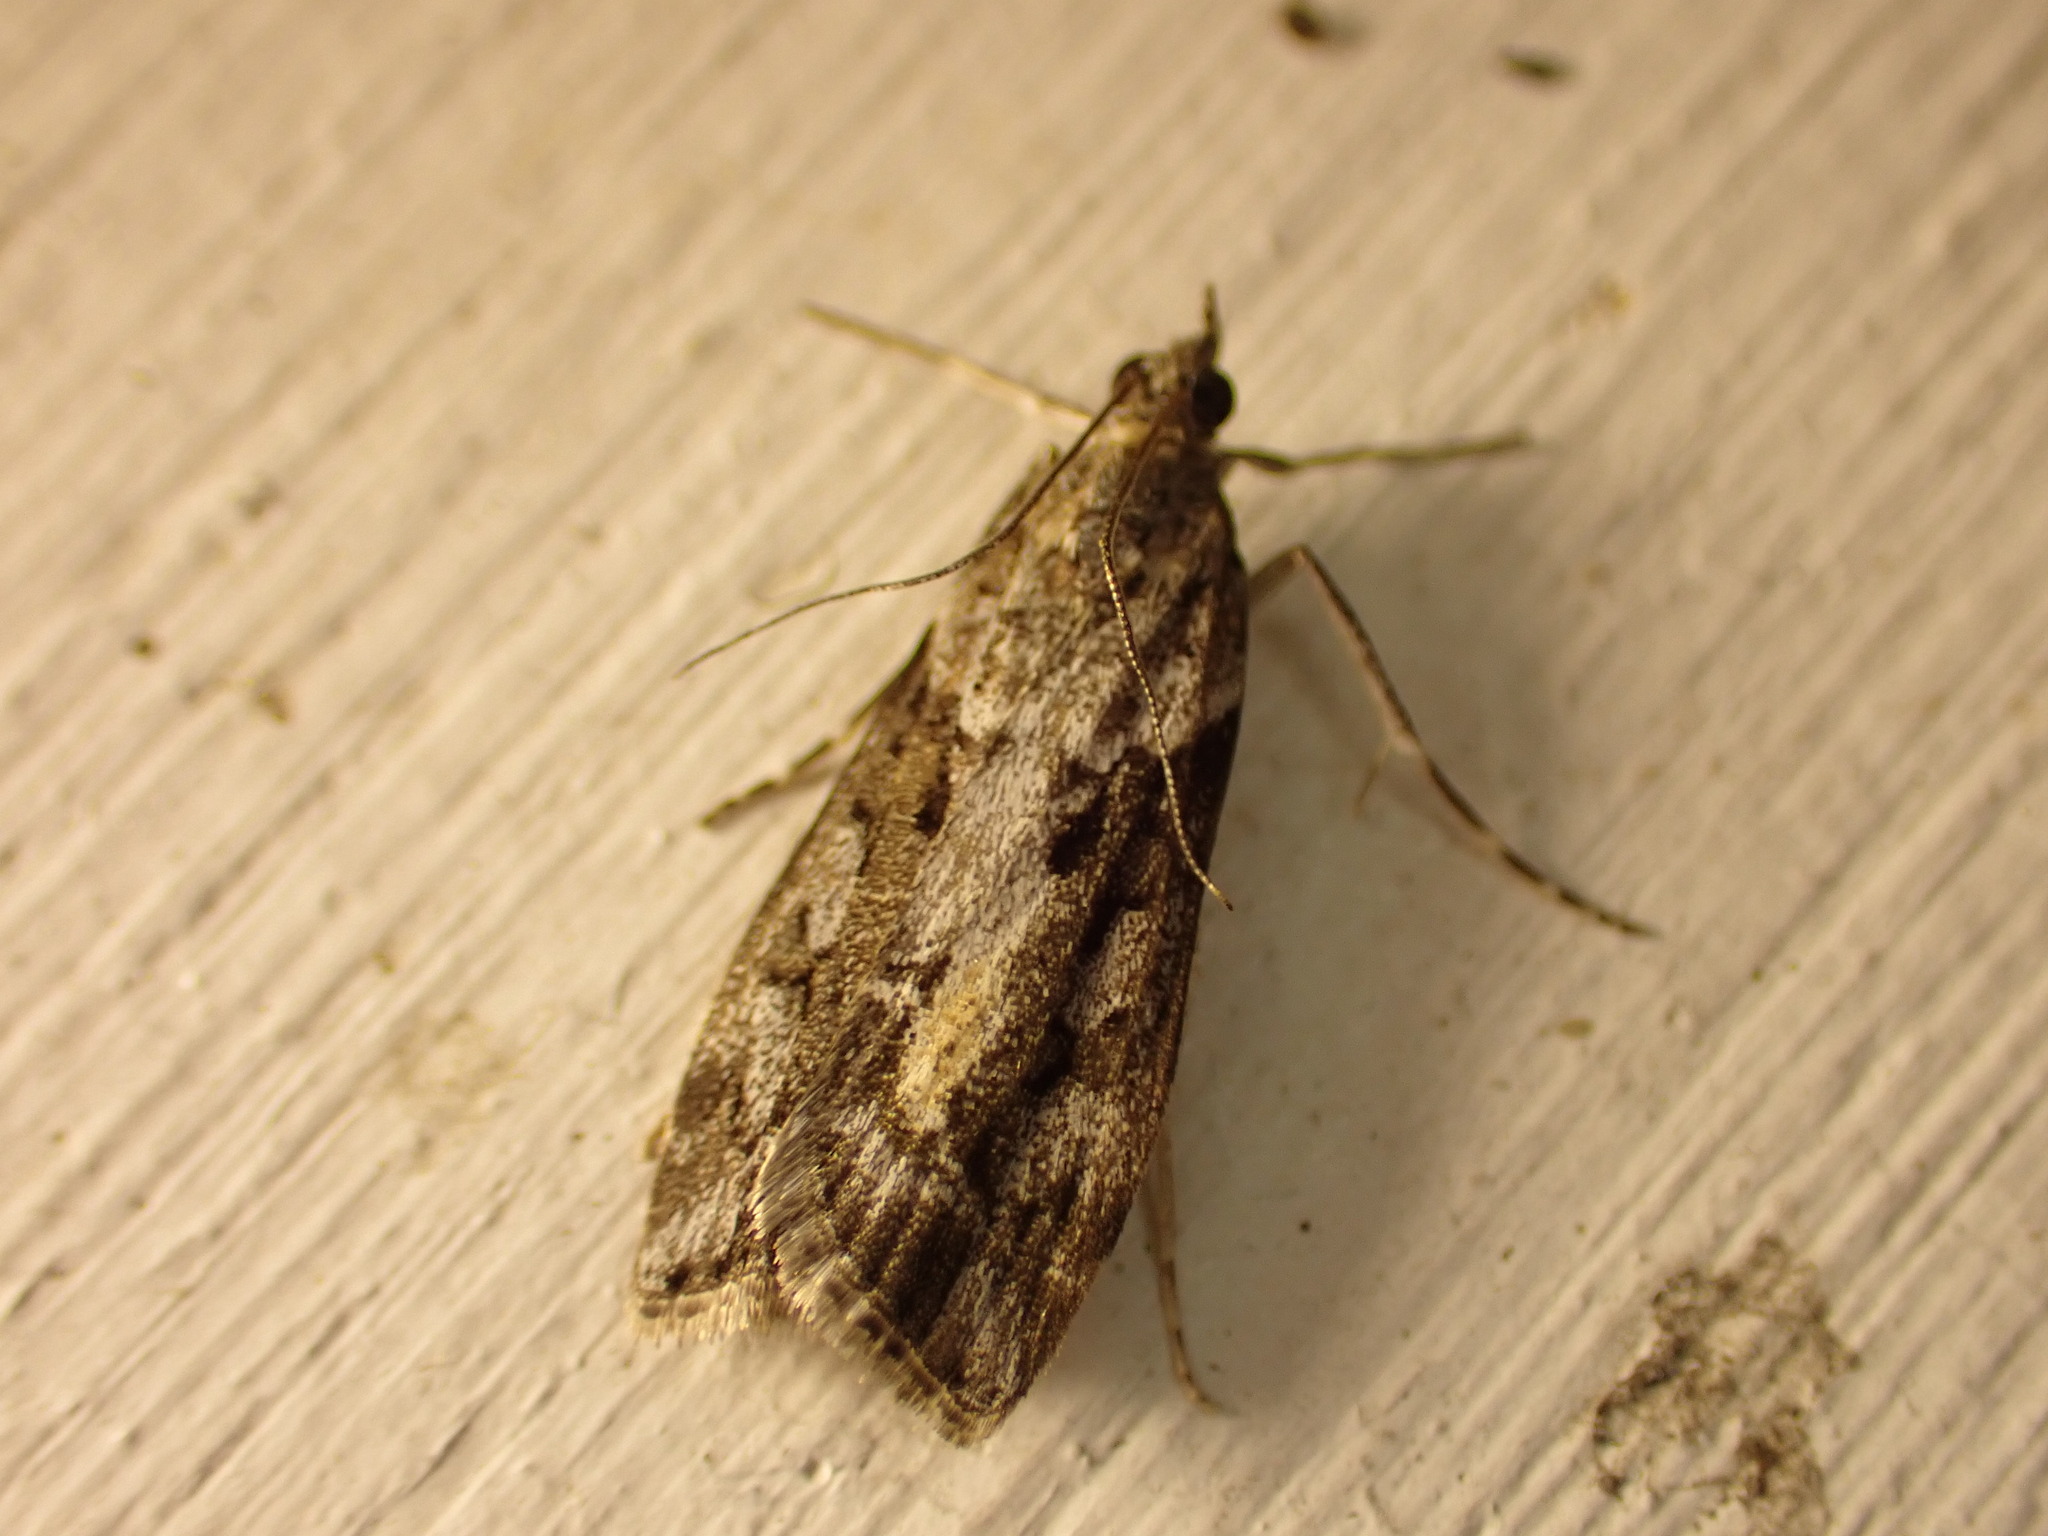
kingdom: Animalia
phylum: Arthropoda
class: Insecta
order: Lepidoptera
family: Crambidae
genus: Eudonia
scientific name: Eudonia submarginalis
